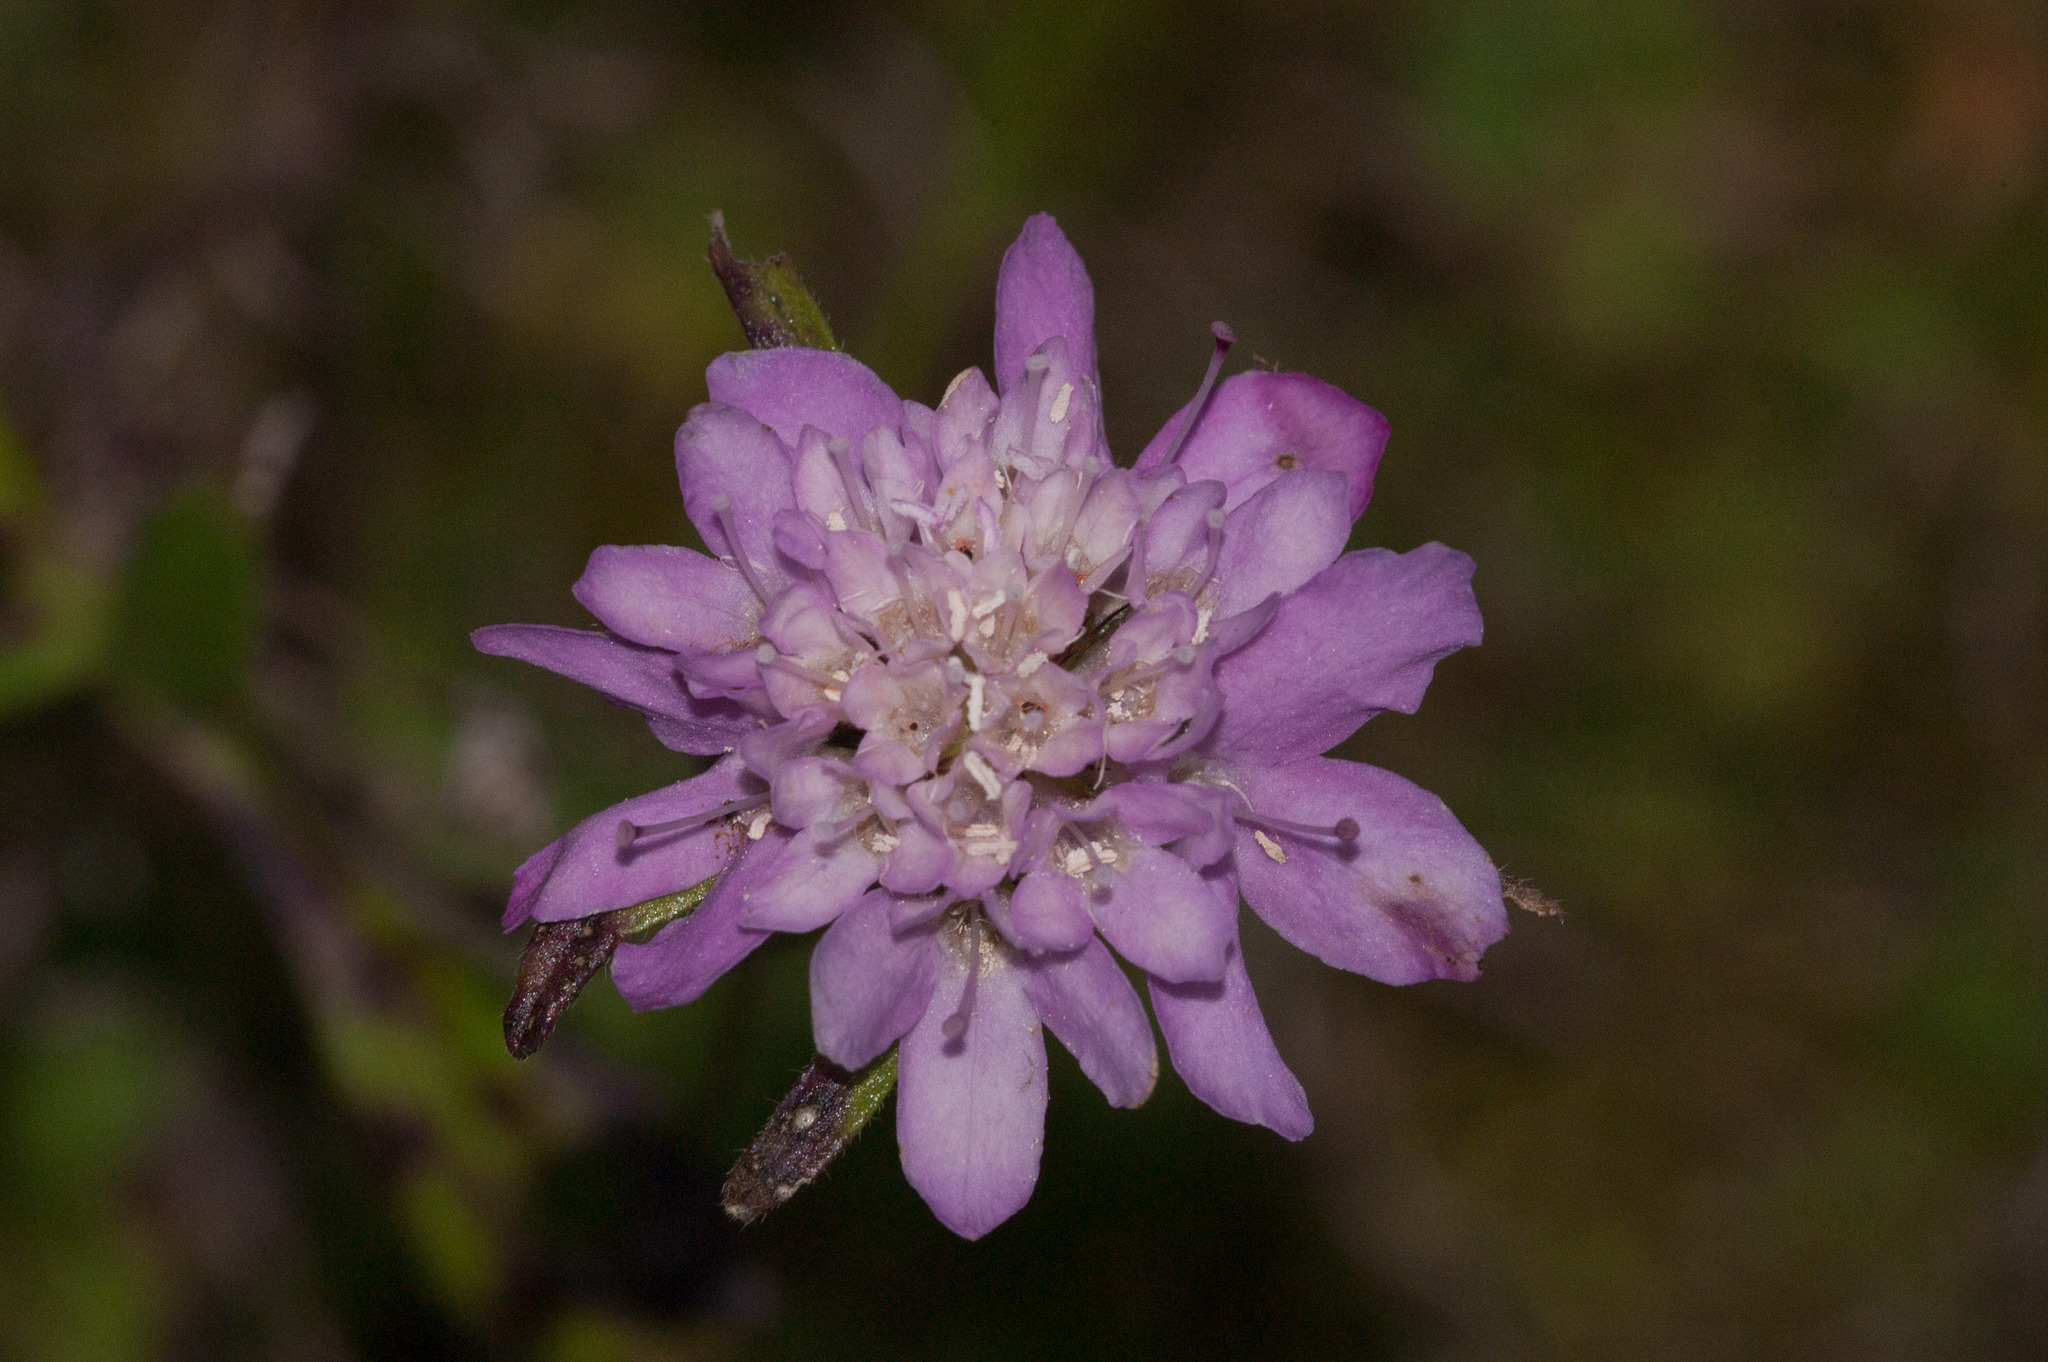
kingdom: Plantae
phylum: Tracheophyta
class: Magnoliopsida
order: Dipsacales
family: Caprifoliaceae
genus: Sixalix
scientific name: Sixalix atropurpurea
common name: Sweet scabious
